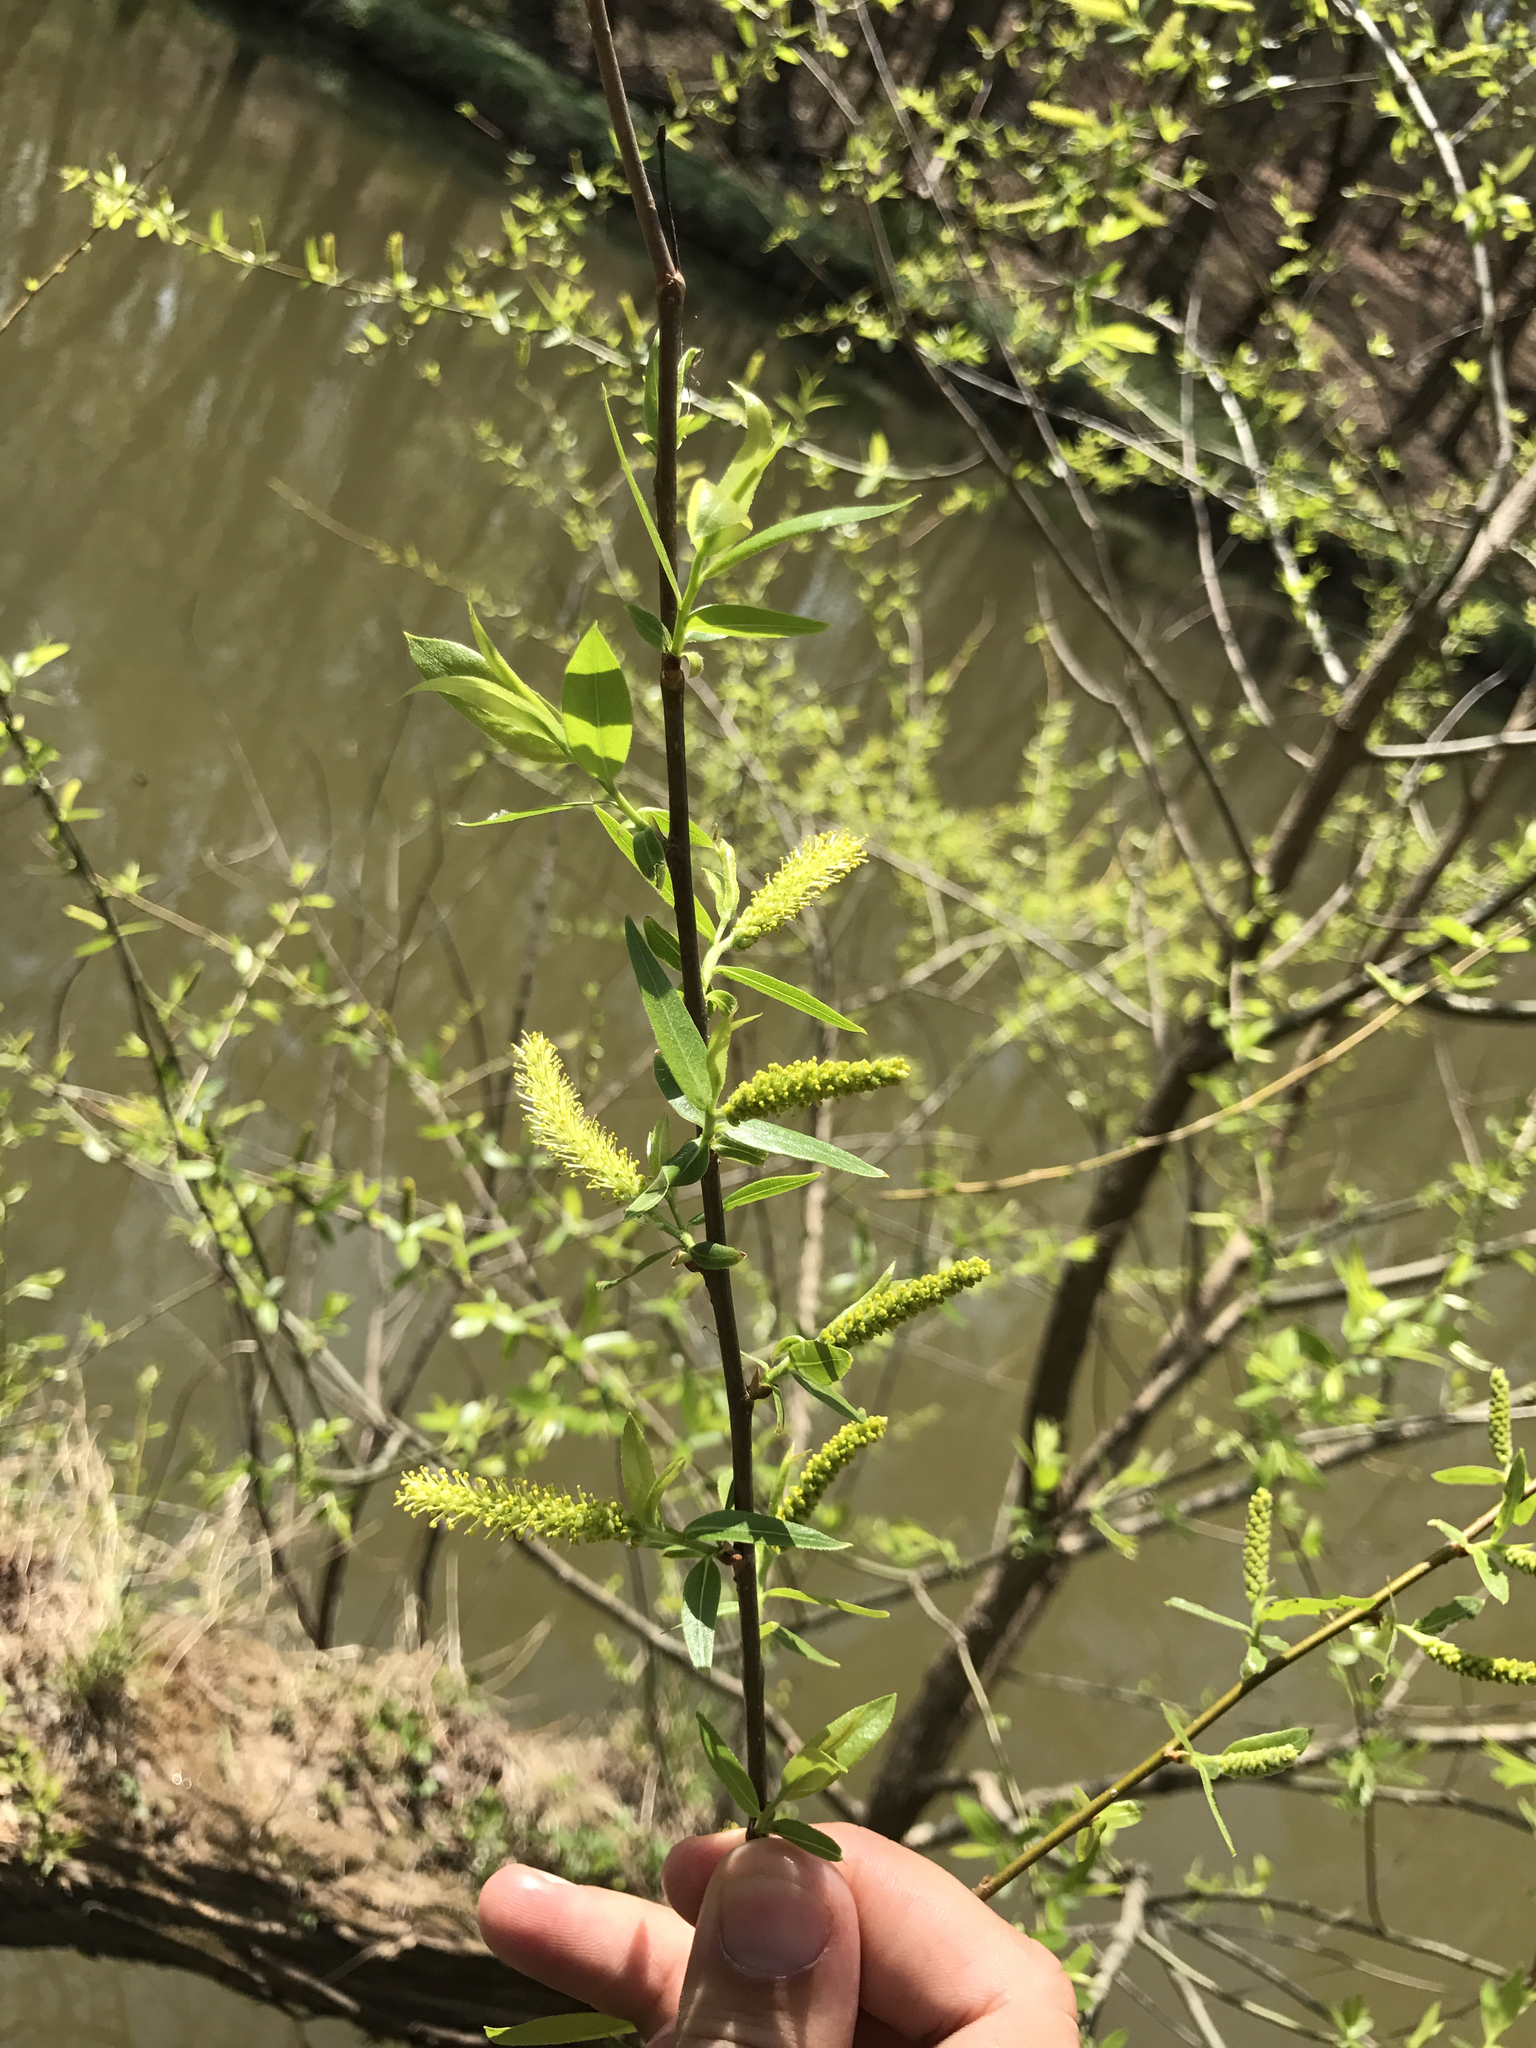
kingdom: Plantae
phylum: Tracheophyta
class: Magnoliopsida
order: Malpighiales
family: Salicaceae
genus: Salix
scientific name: Salix nigra
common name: Black willow
